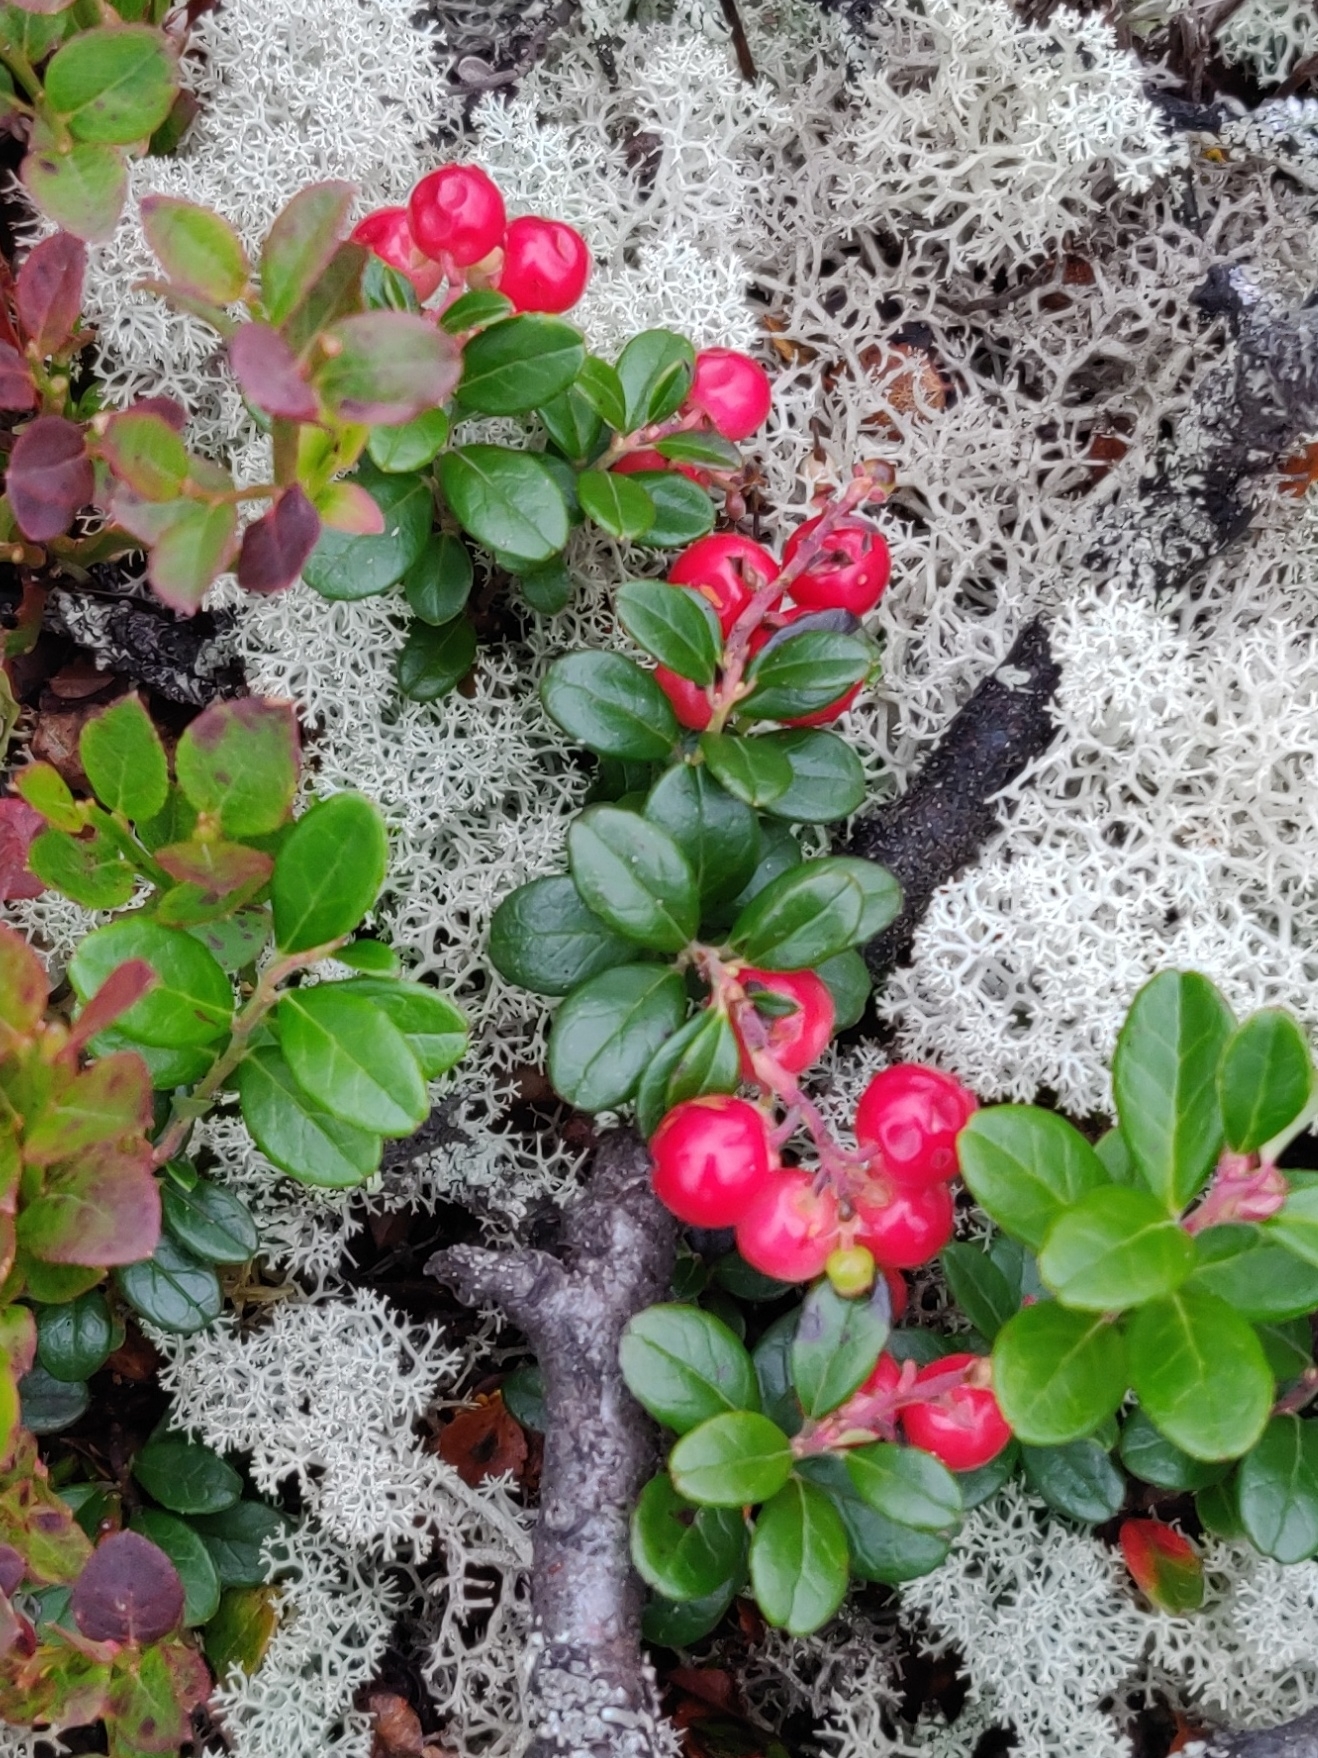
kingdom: Plantae
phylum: Tracheophyta
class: Magnoliopsida
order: Ericales
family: Ericaceae
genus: Vaccinium
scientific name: Vaccinium vitis-idaea
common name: Cowberry
